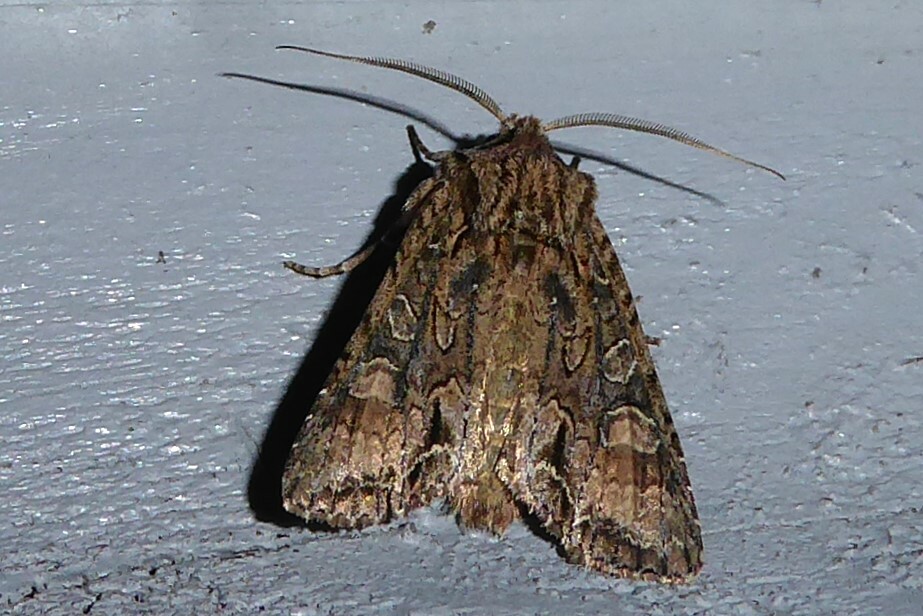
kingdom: Animalia
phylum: Arthropoda
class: Insecta
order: Lepidoptera
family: Noctuidae
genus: Ichneutica
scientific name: Ichneutica mutans
